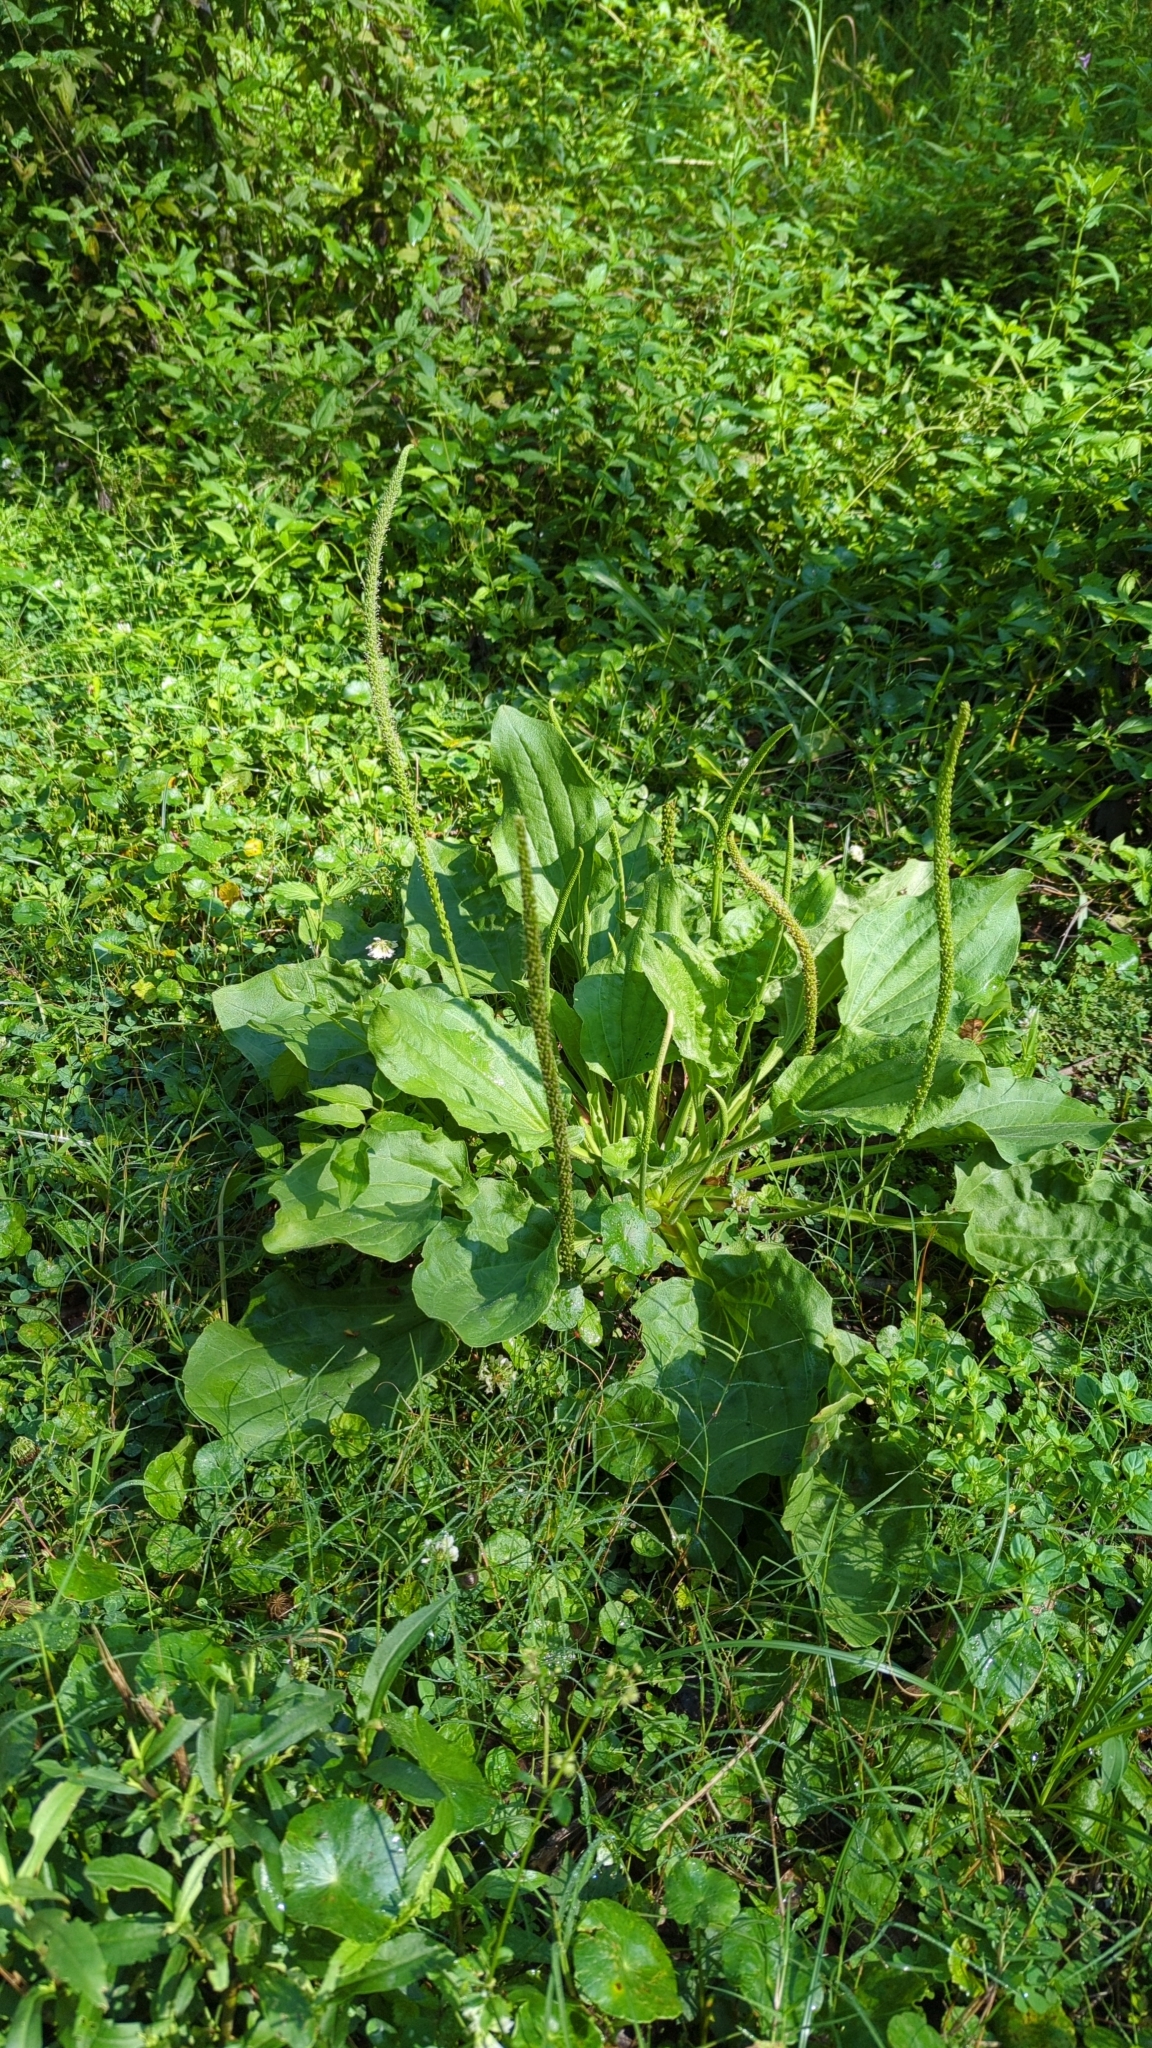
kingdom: Plantae
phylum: Tracheophyta
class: Magnoliopsida
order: Lamiales
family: Plantaginaceae
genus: Plantago
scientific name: Plantago major
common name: Common plantain
